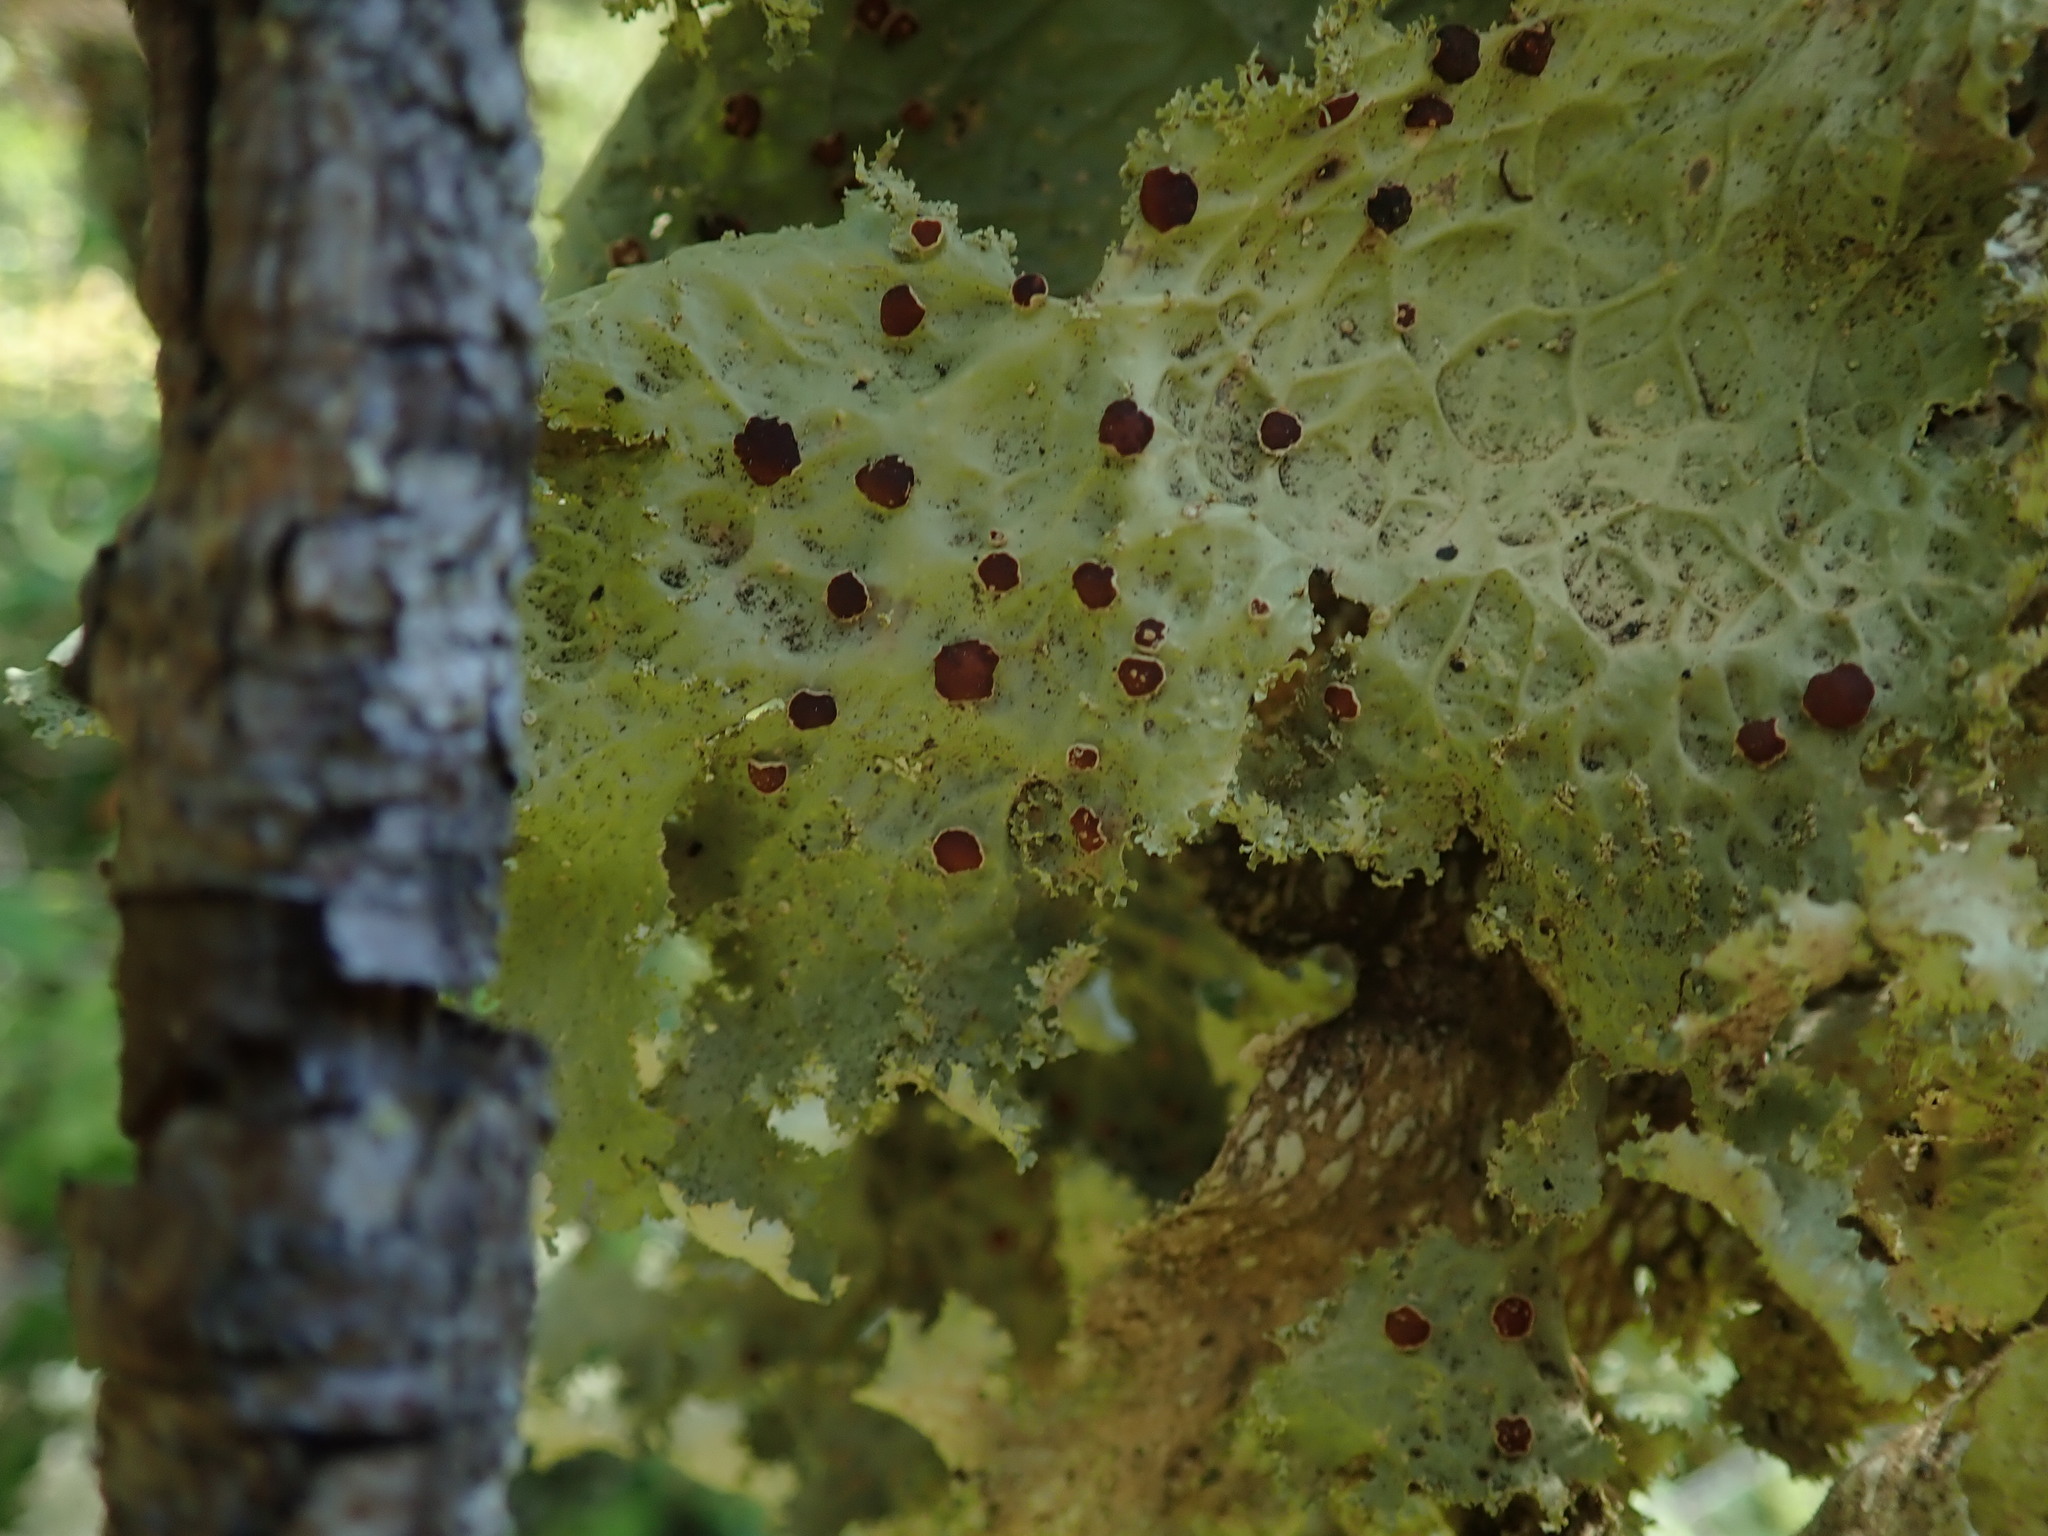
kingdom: Fungi
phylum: Ascomycota
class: Lecanoromycetes
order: Peltigerales
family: Lobariaceae
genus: Lobaria
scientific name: Lobaria oregana
